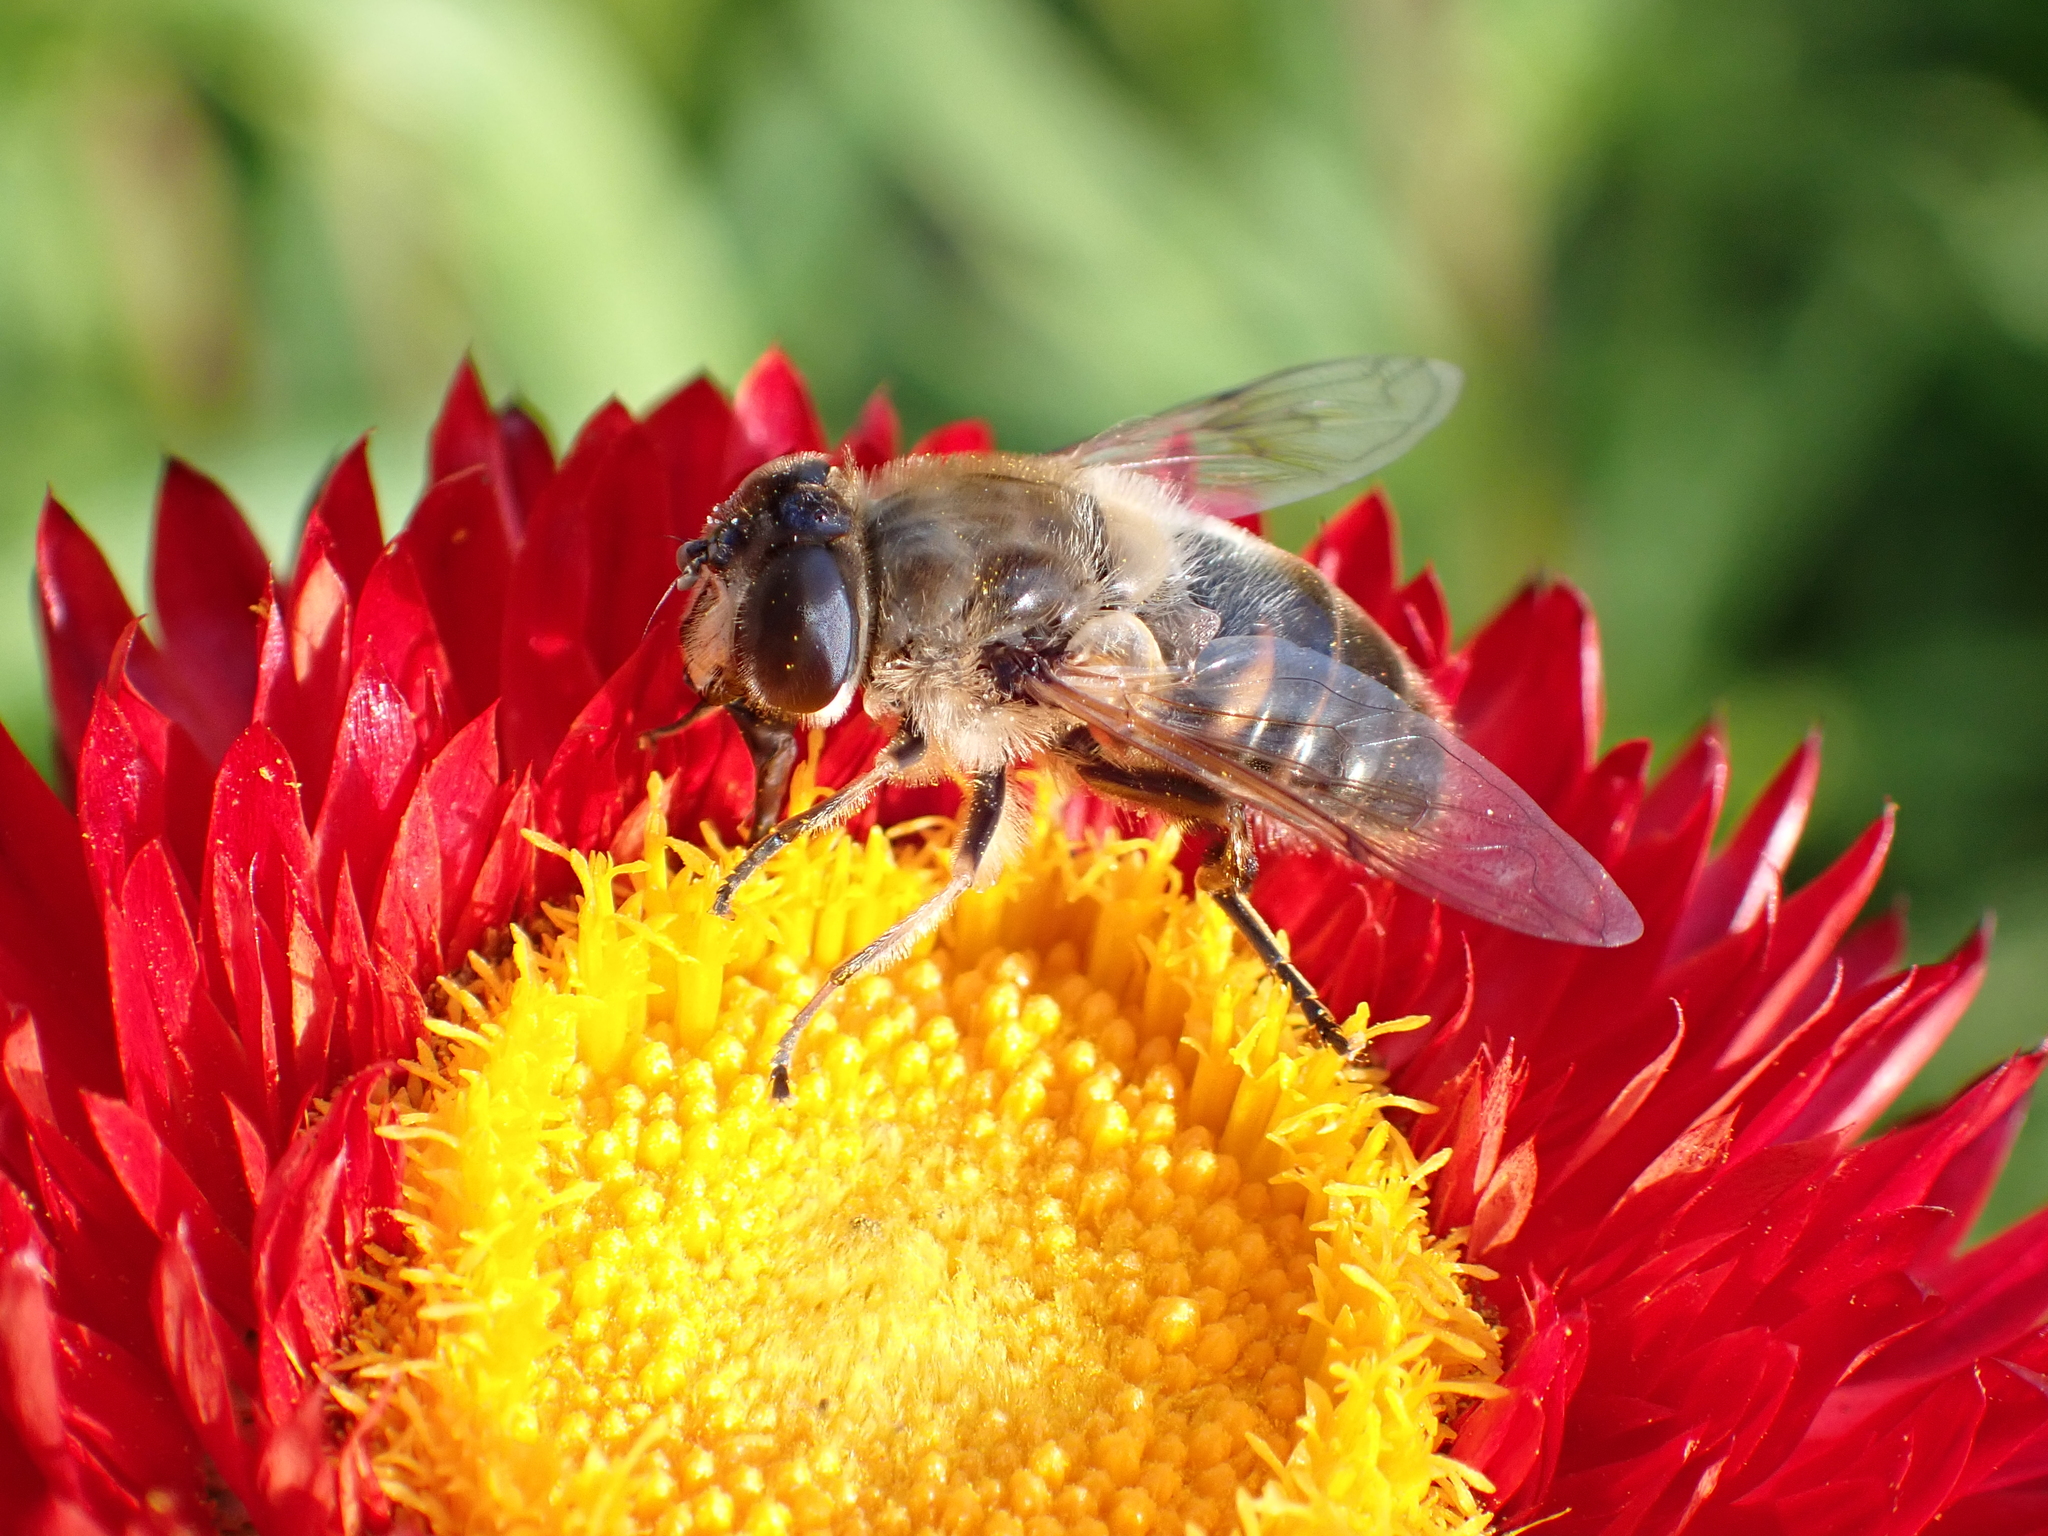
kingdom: Animalia
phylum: Arthropoda
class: Insecta
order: Diptera
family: Syrphidae
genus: Eristalis
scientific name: Eristalis tenax
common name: Drone fly
